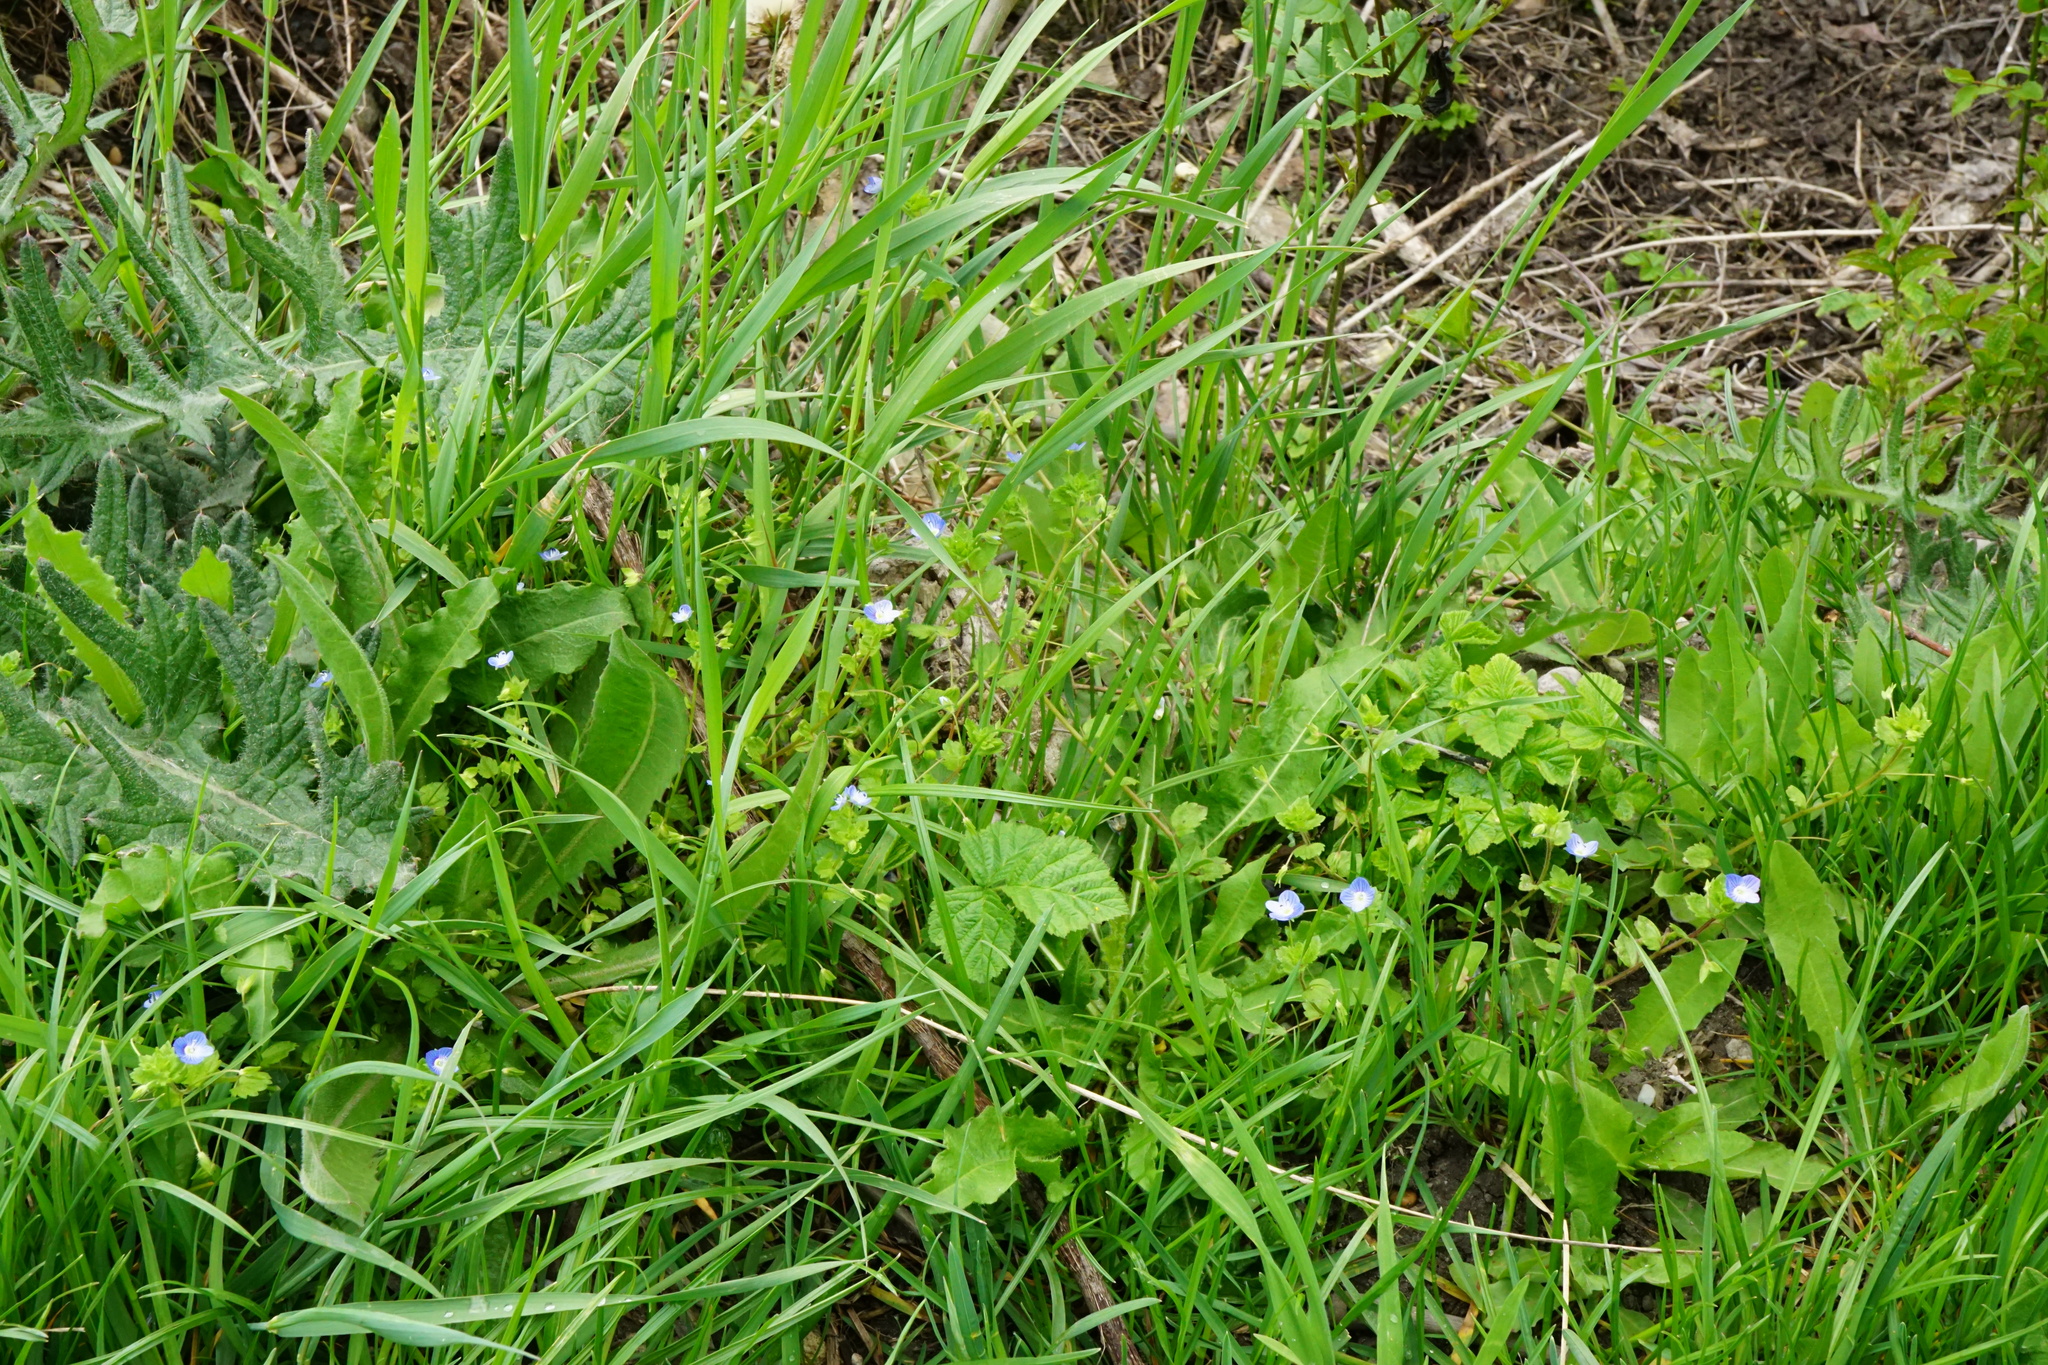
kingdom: Plantae
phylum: Tracheophyta
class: Magnoliopsida
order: Lamiales
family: Plantaginaceae
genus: Veronica
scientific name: Veronica persica
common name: Common field-speedwell
